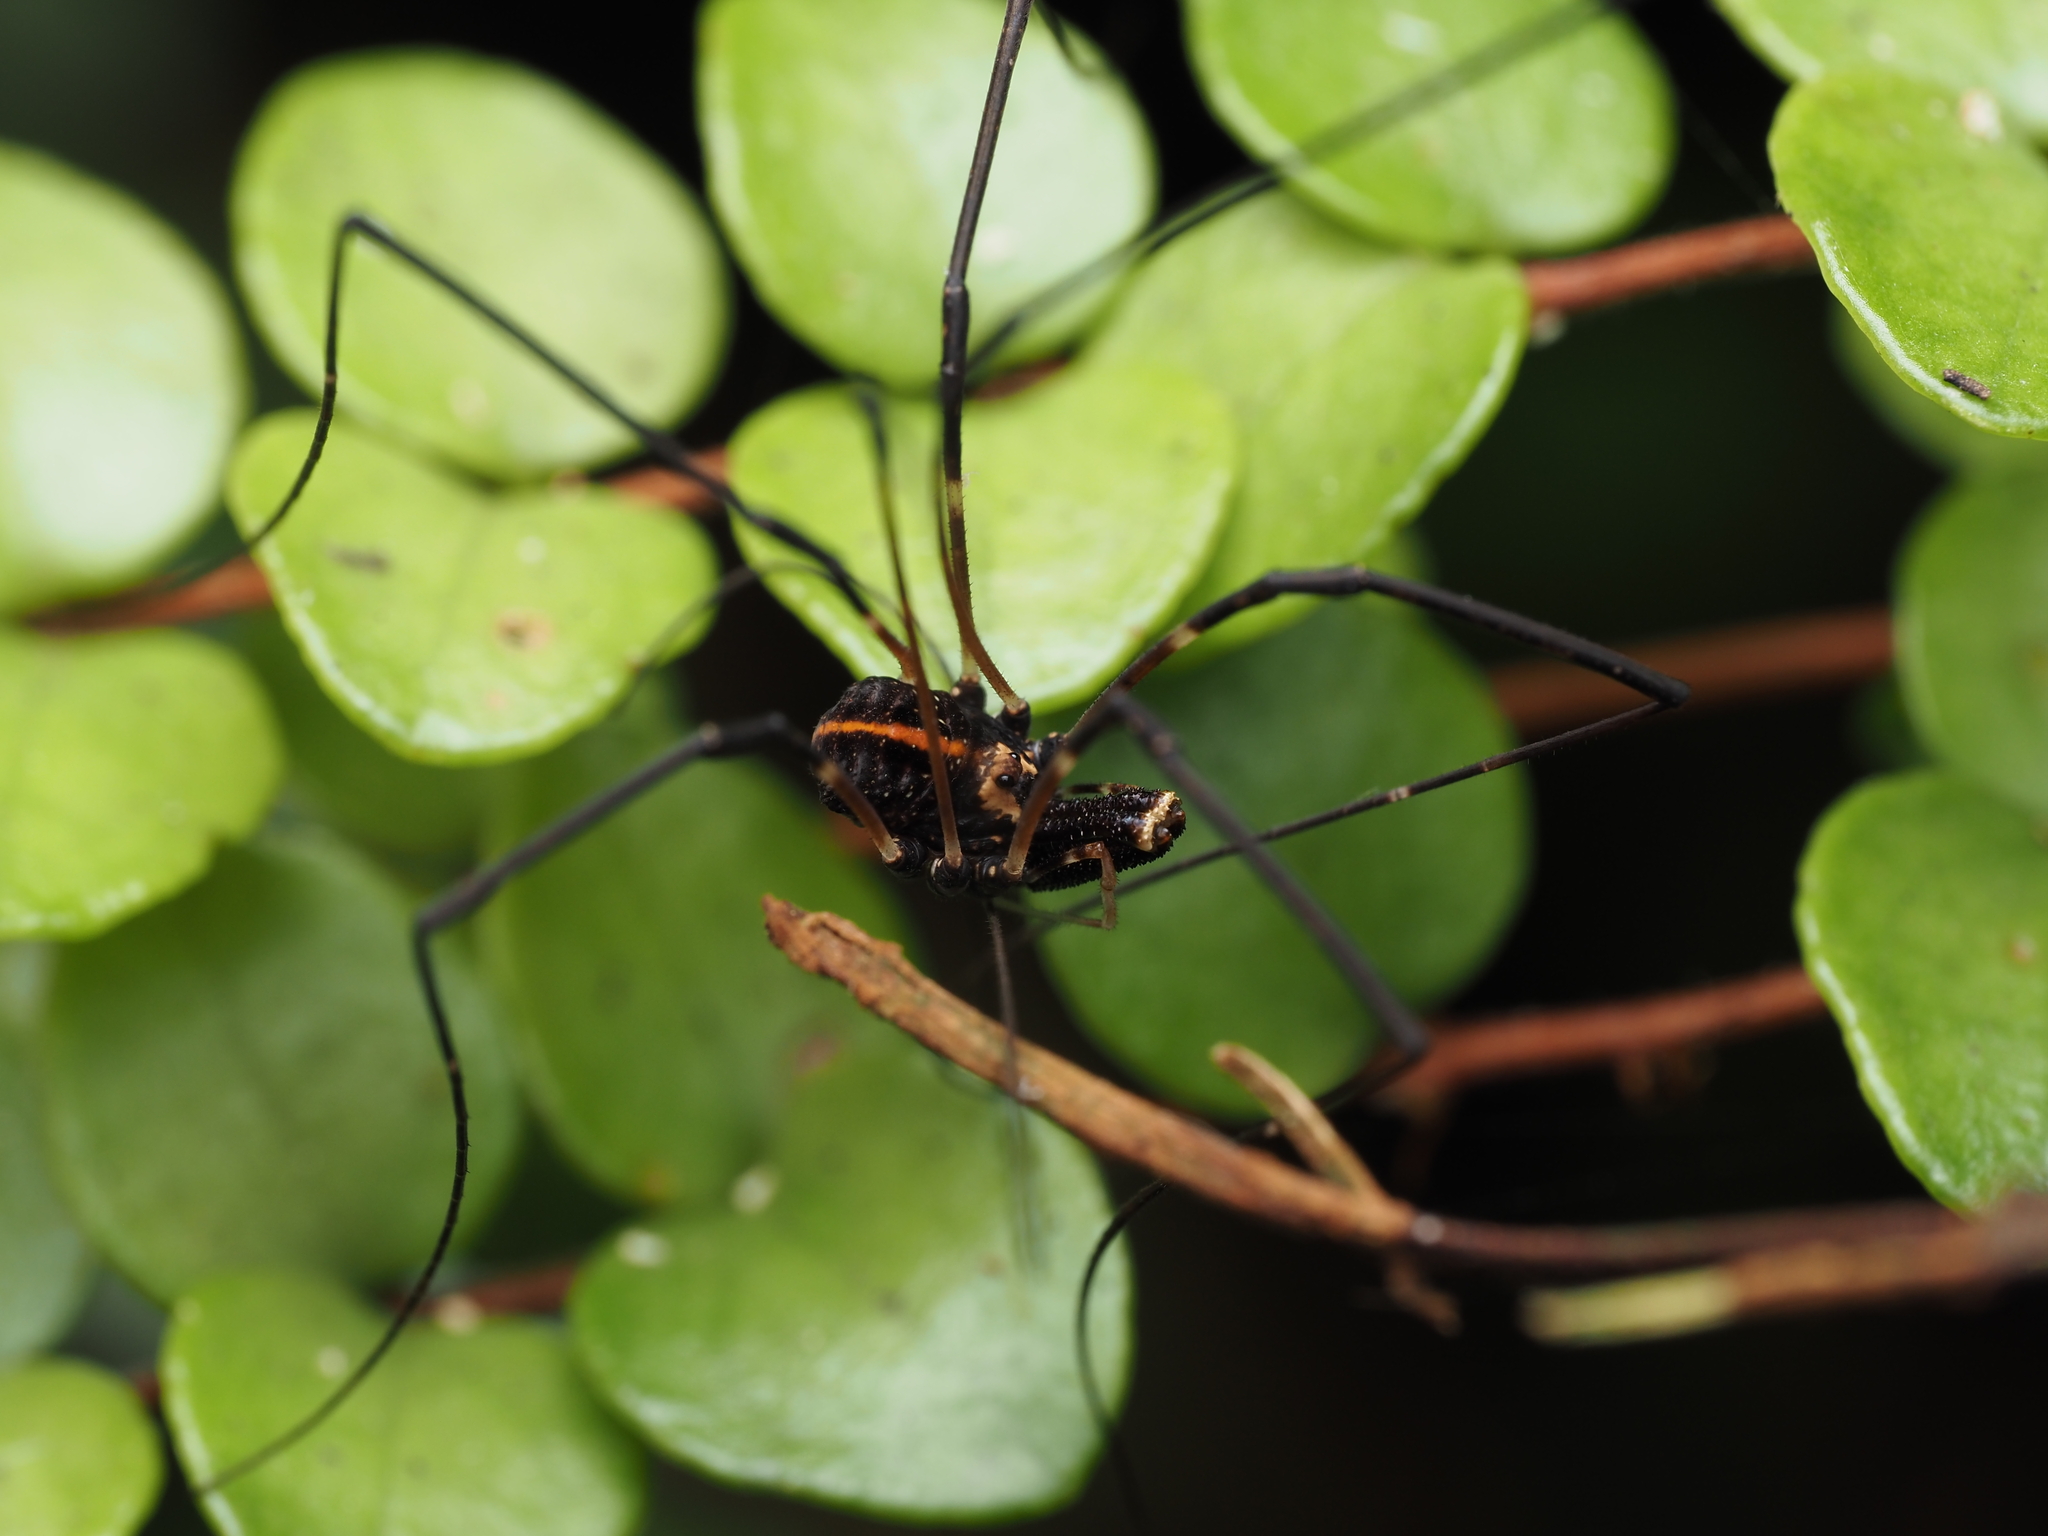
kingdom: Animalia
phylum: Arthropoda
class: Arachnida
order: Opiliones
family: Neopilionidae
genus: Forsteropsalis
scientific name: Forsteropsalis pureora
